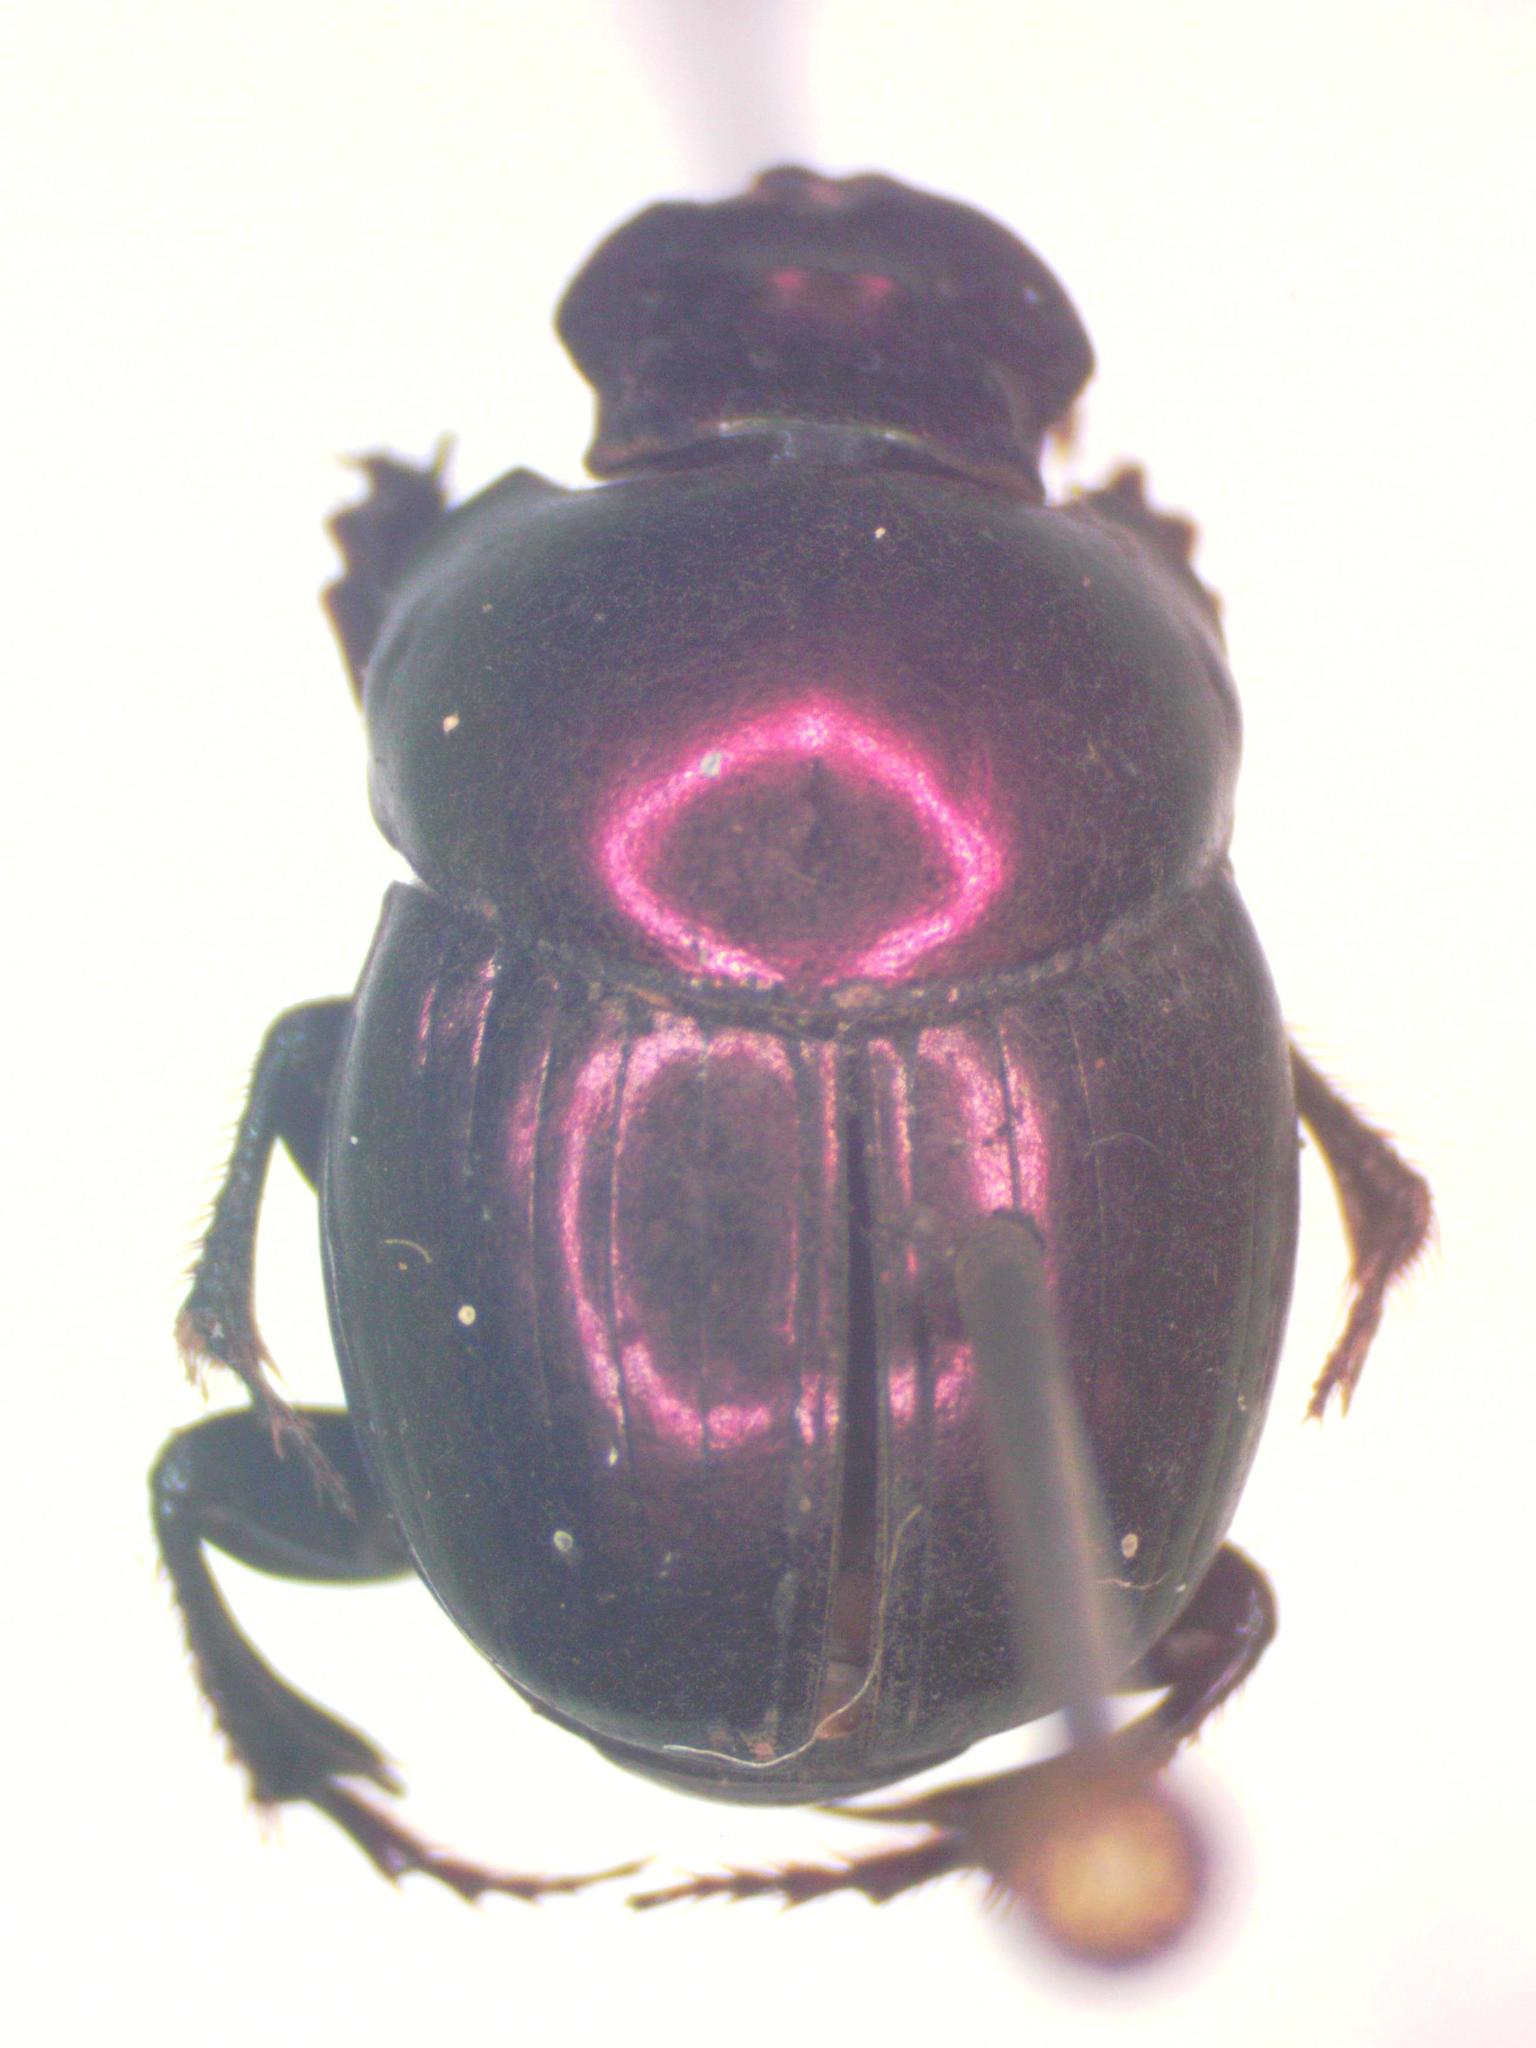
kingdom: Animalia
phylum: Arthropoda
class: Insecta
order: Coleoptera
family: Scarabaeidae
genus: Canthidium
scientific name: Canthidium haroldi
